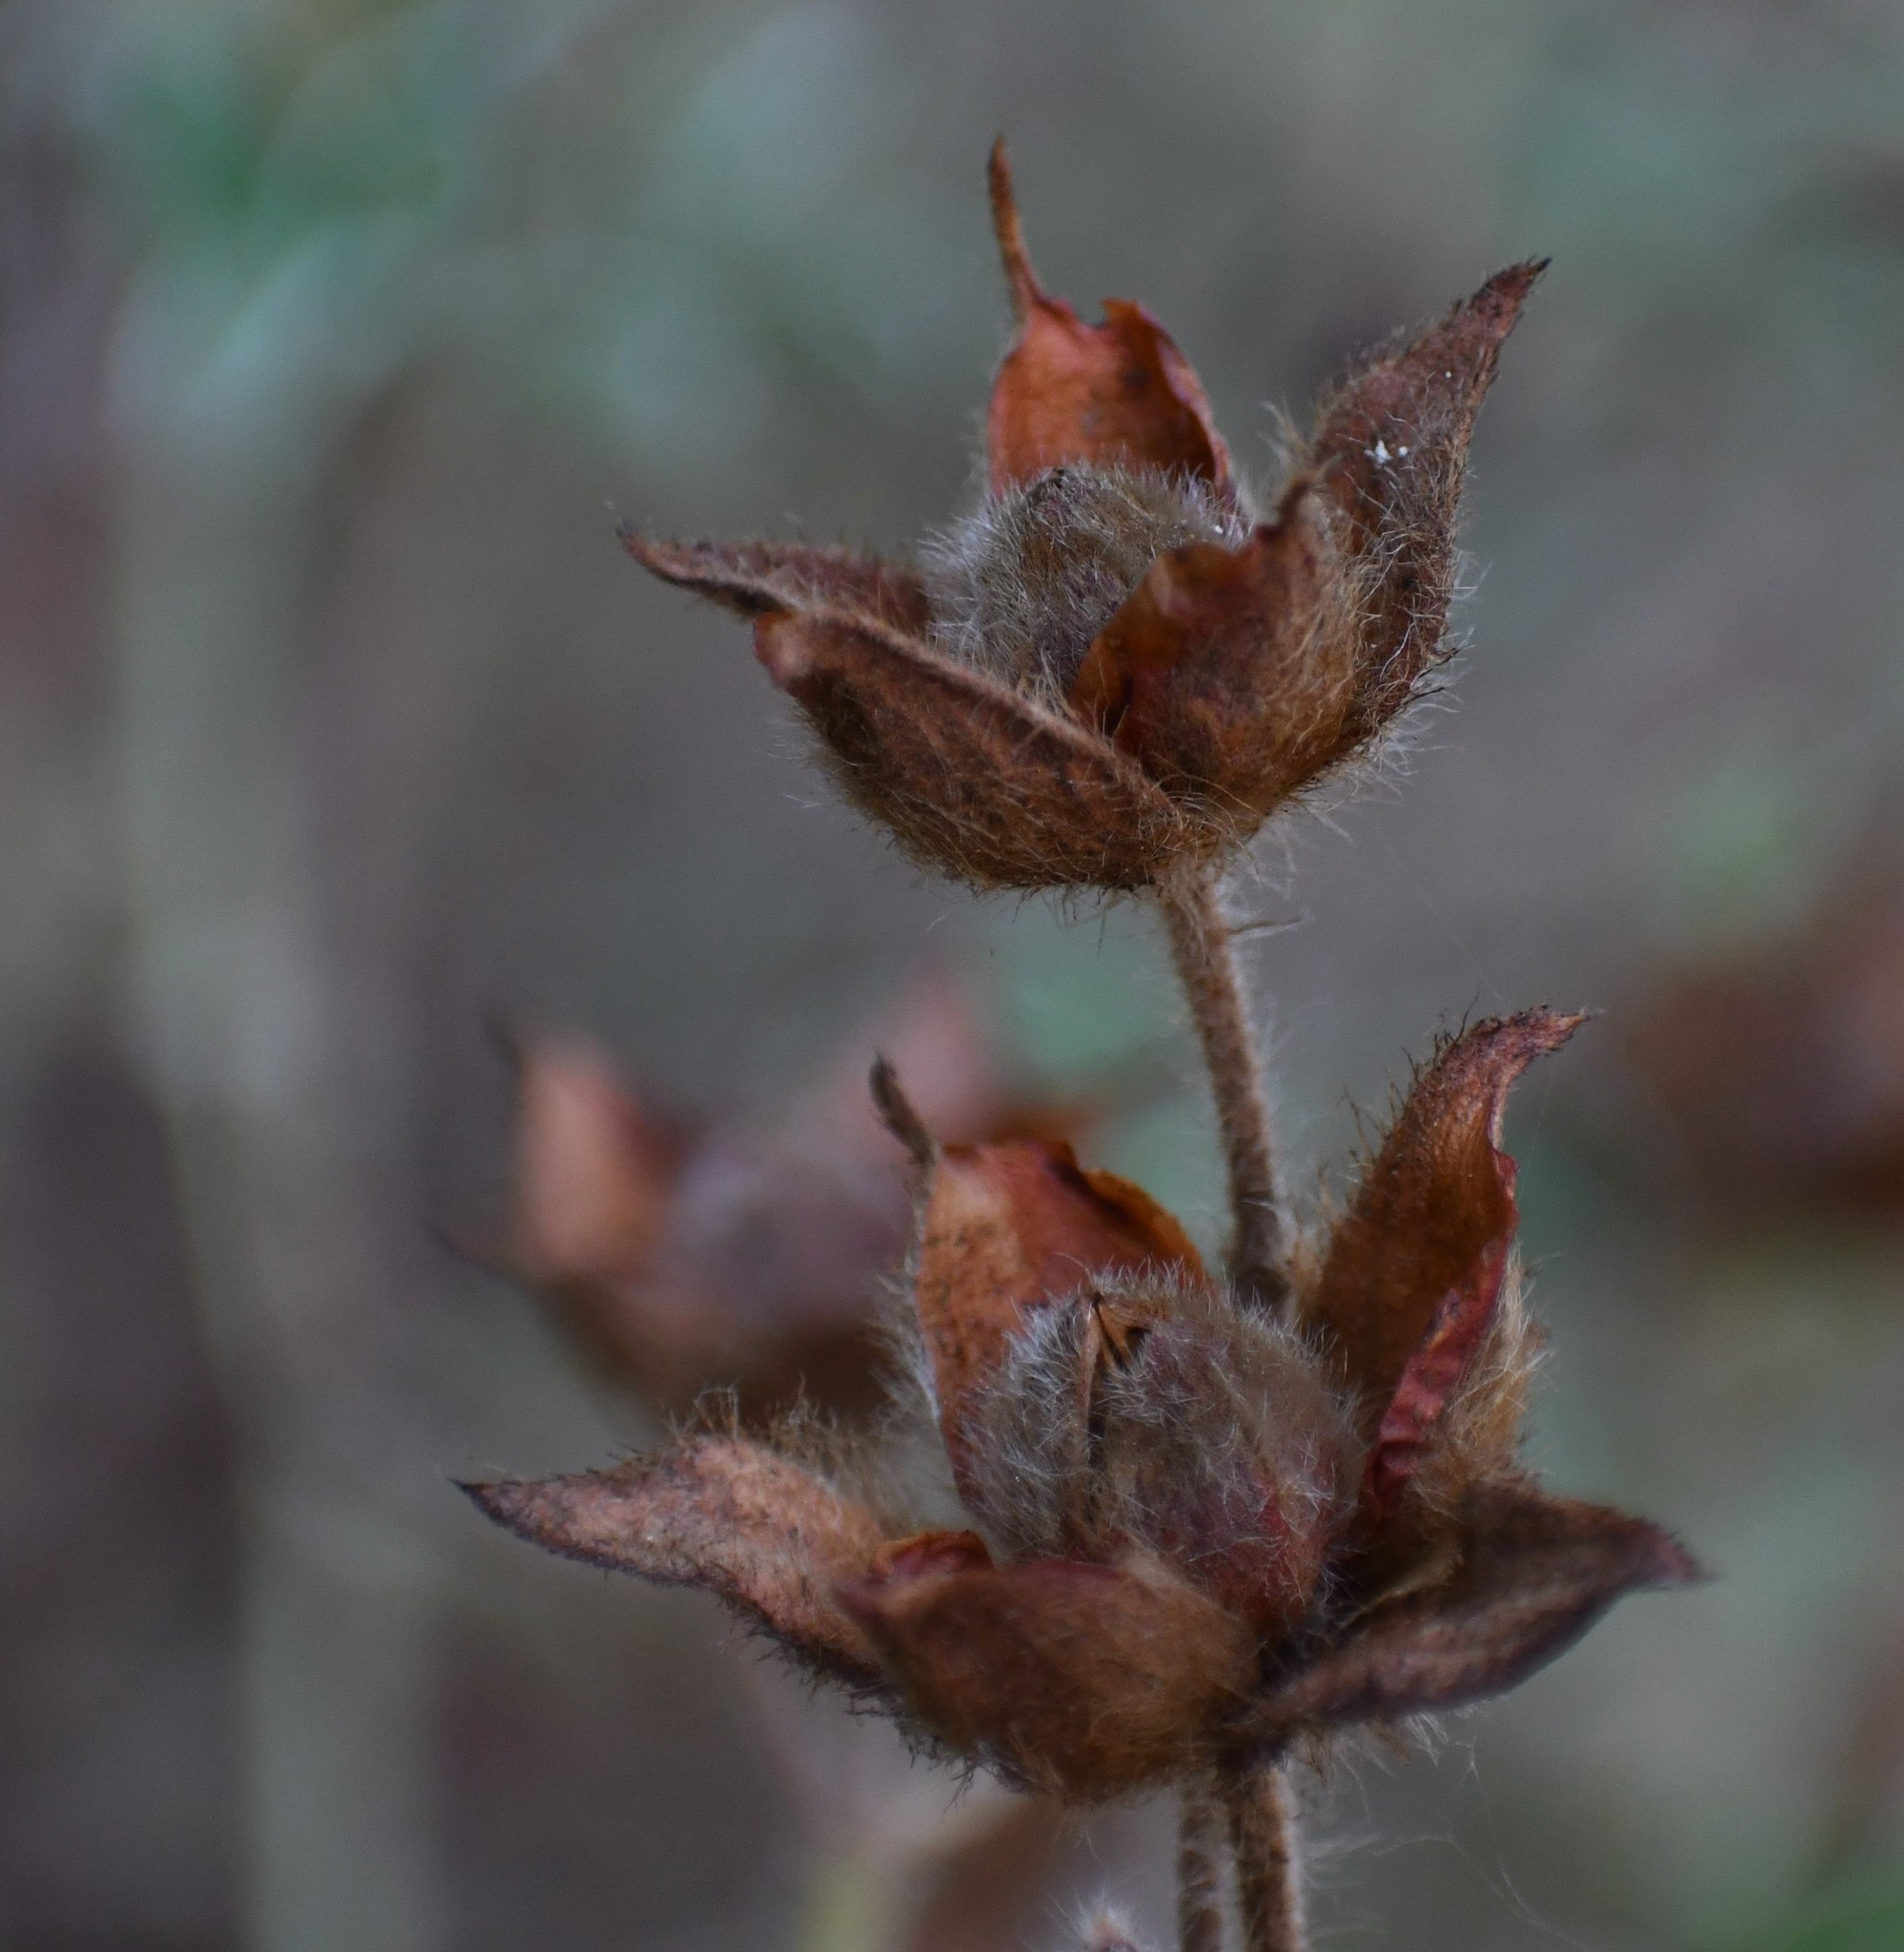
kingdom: Plantae
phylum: Tracheophyta
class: Magnoliopsida
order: Malvales
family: Cistaceae
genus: Cistus
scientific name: Cistus creticus
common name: Cretan rockrose
